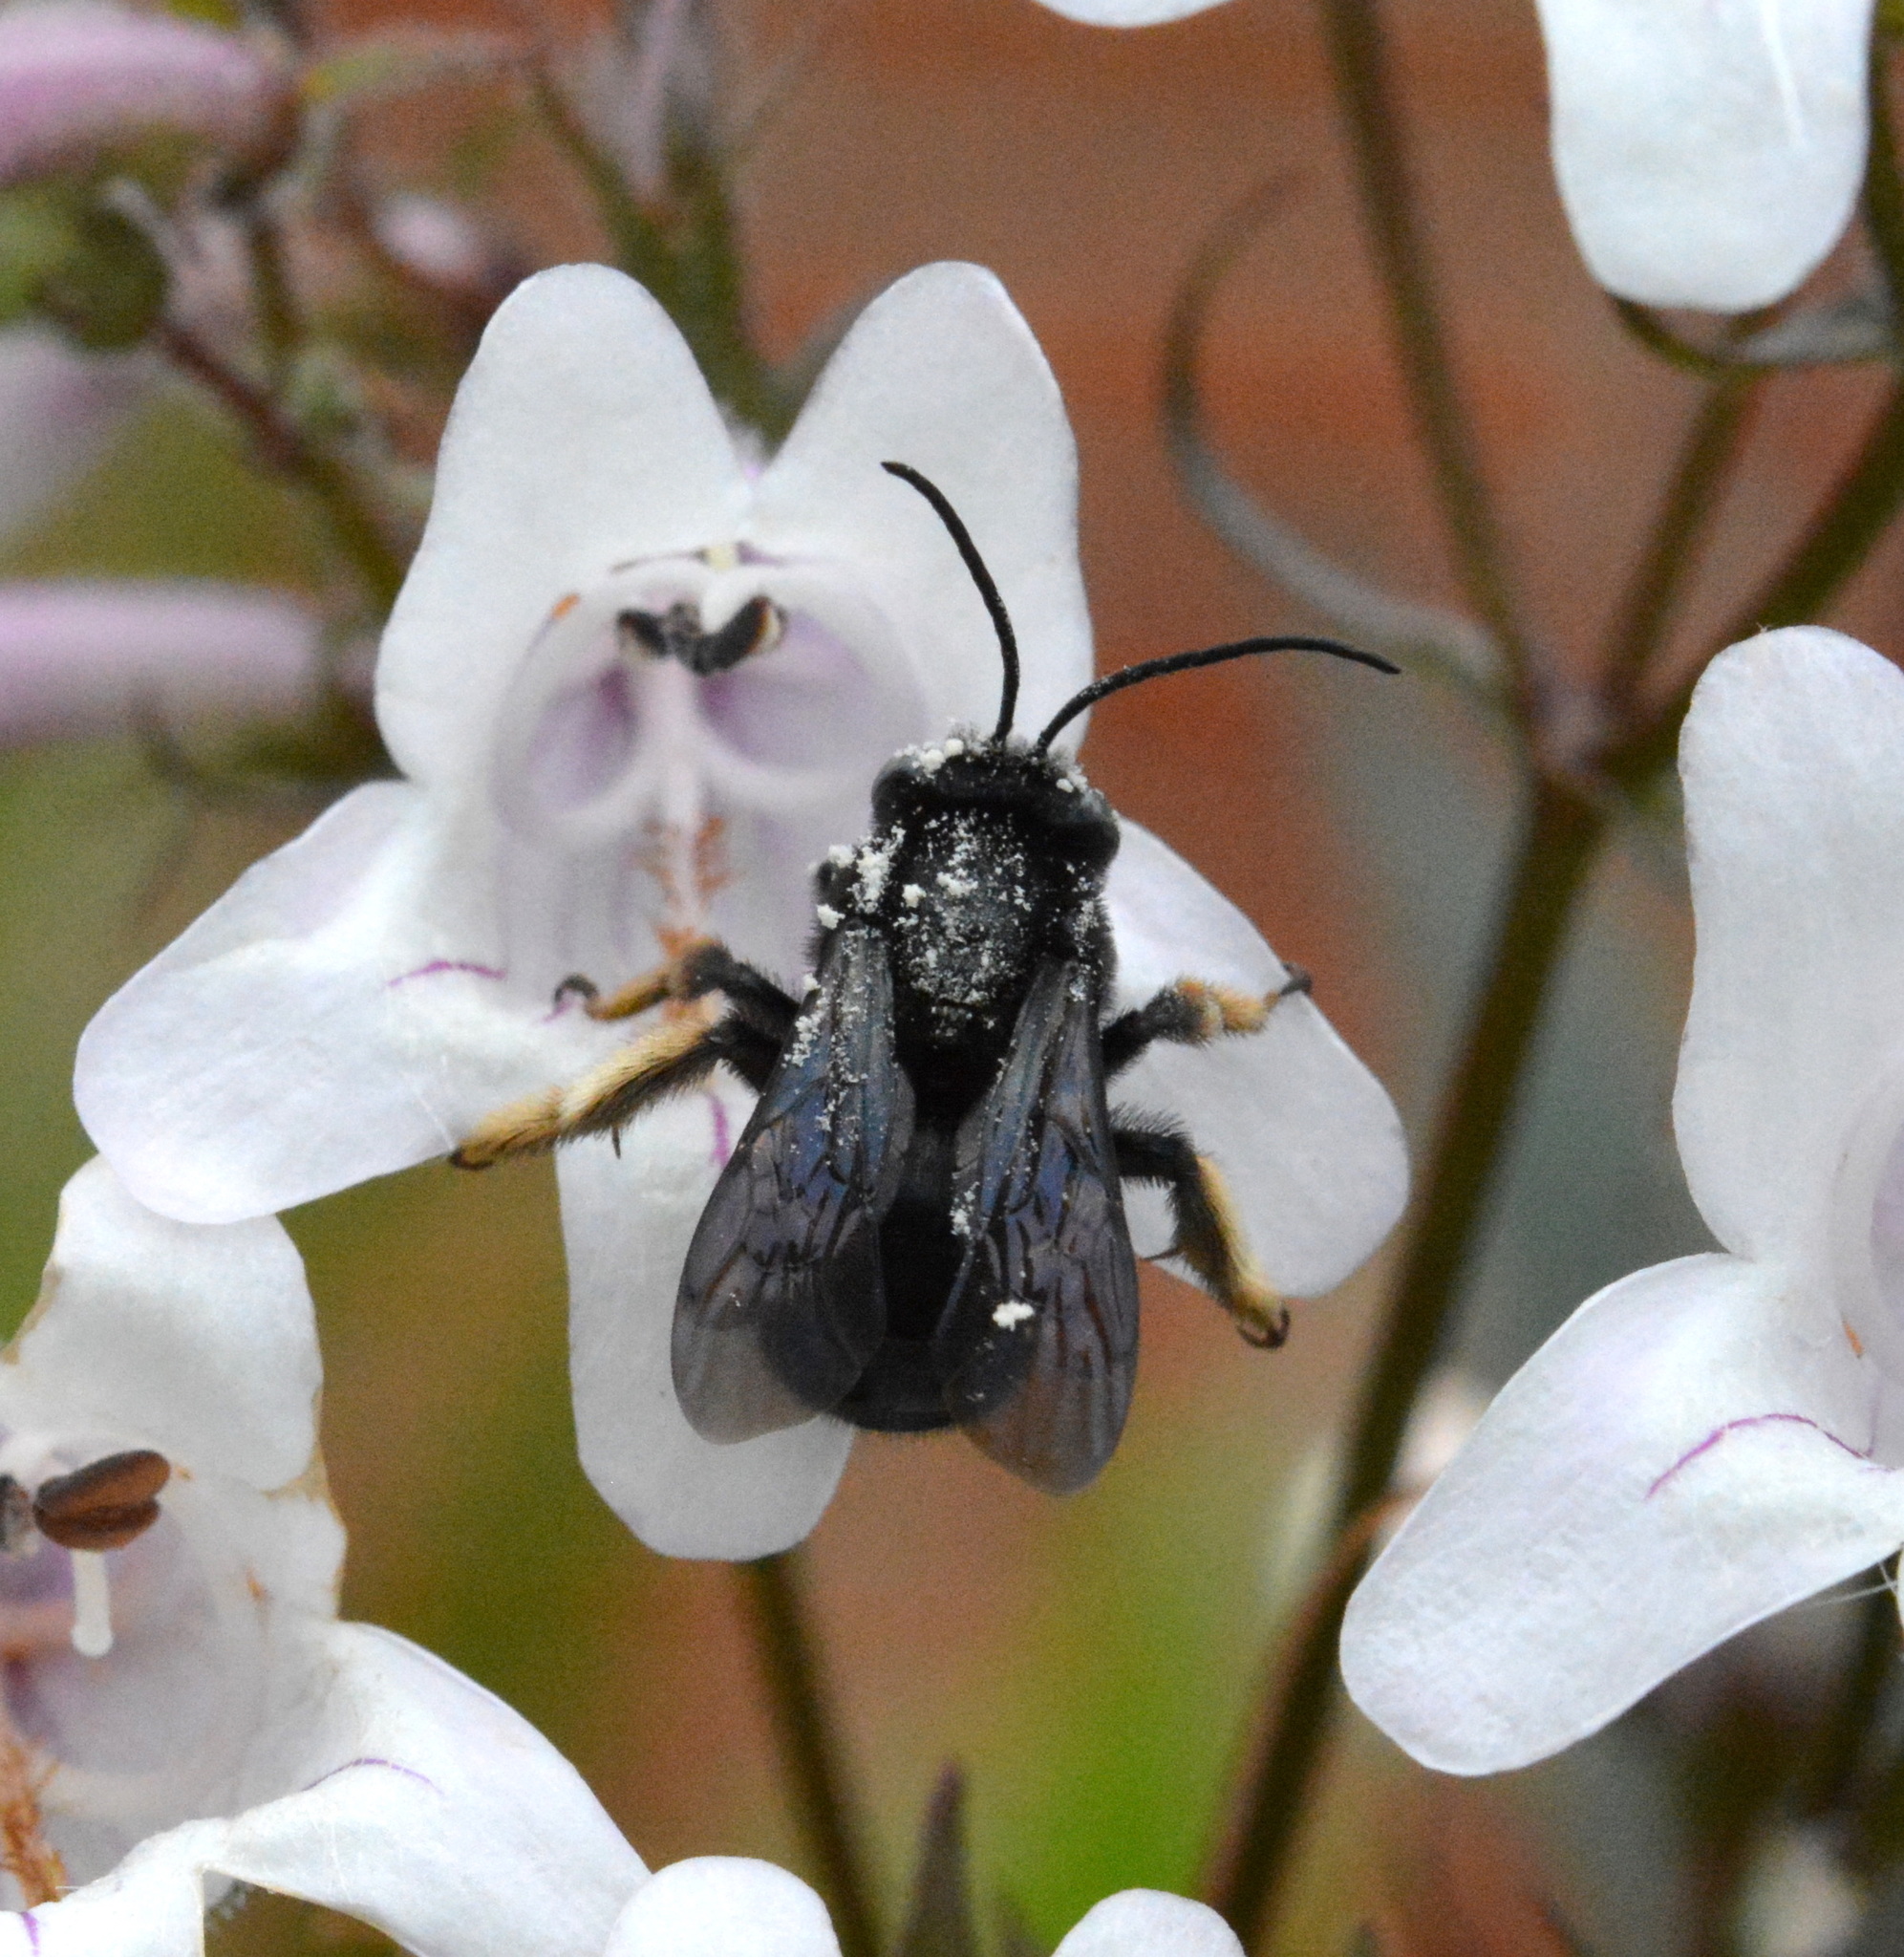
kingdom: Animalia
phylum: Arthropoda
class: Insecta
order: Hymenoptera
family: Apidae
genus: Melissodes
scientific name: Melissodes bimaculatus
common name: Two-spotted long-horned bee
